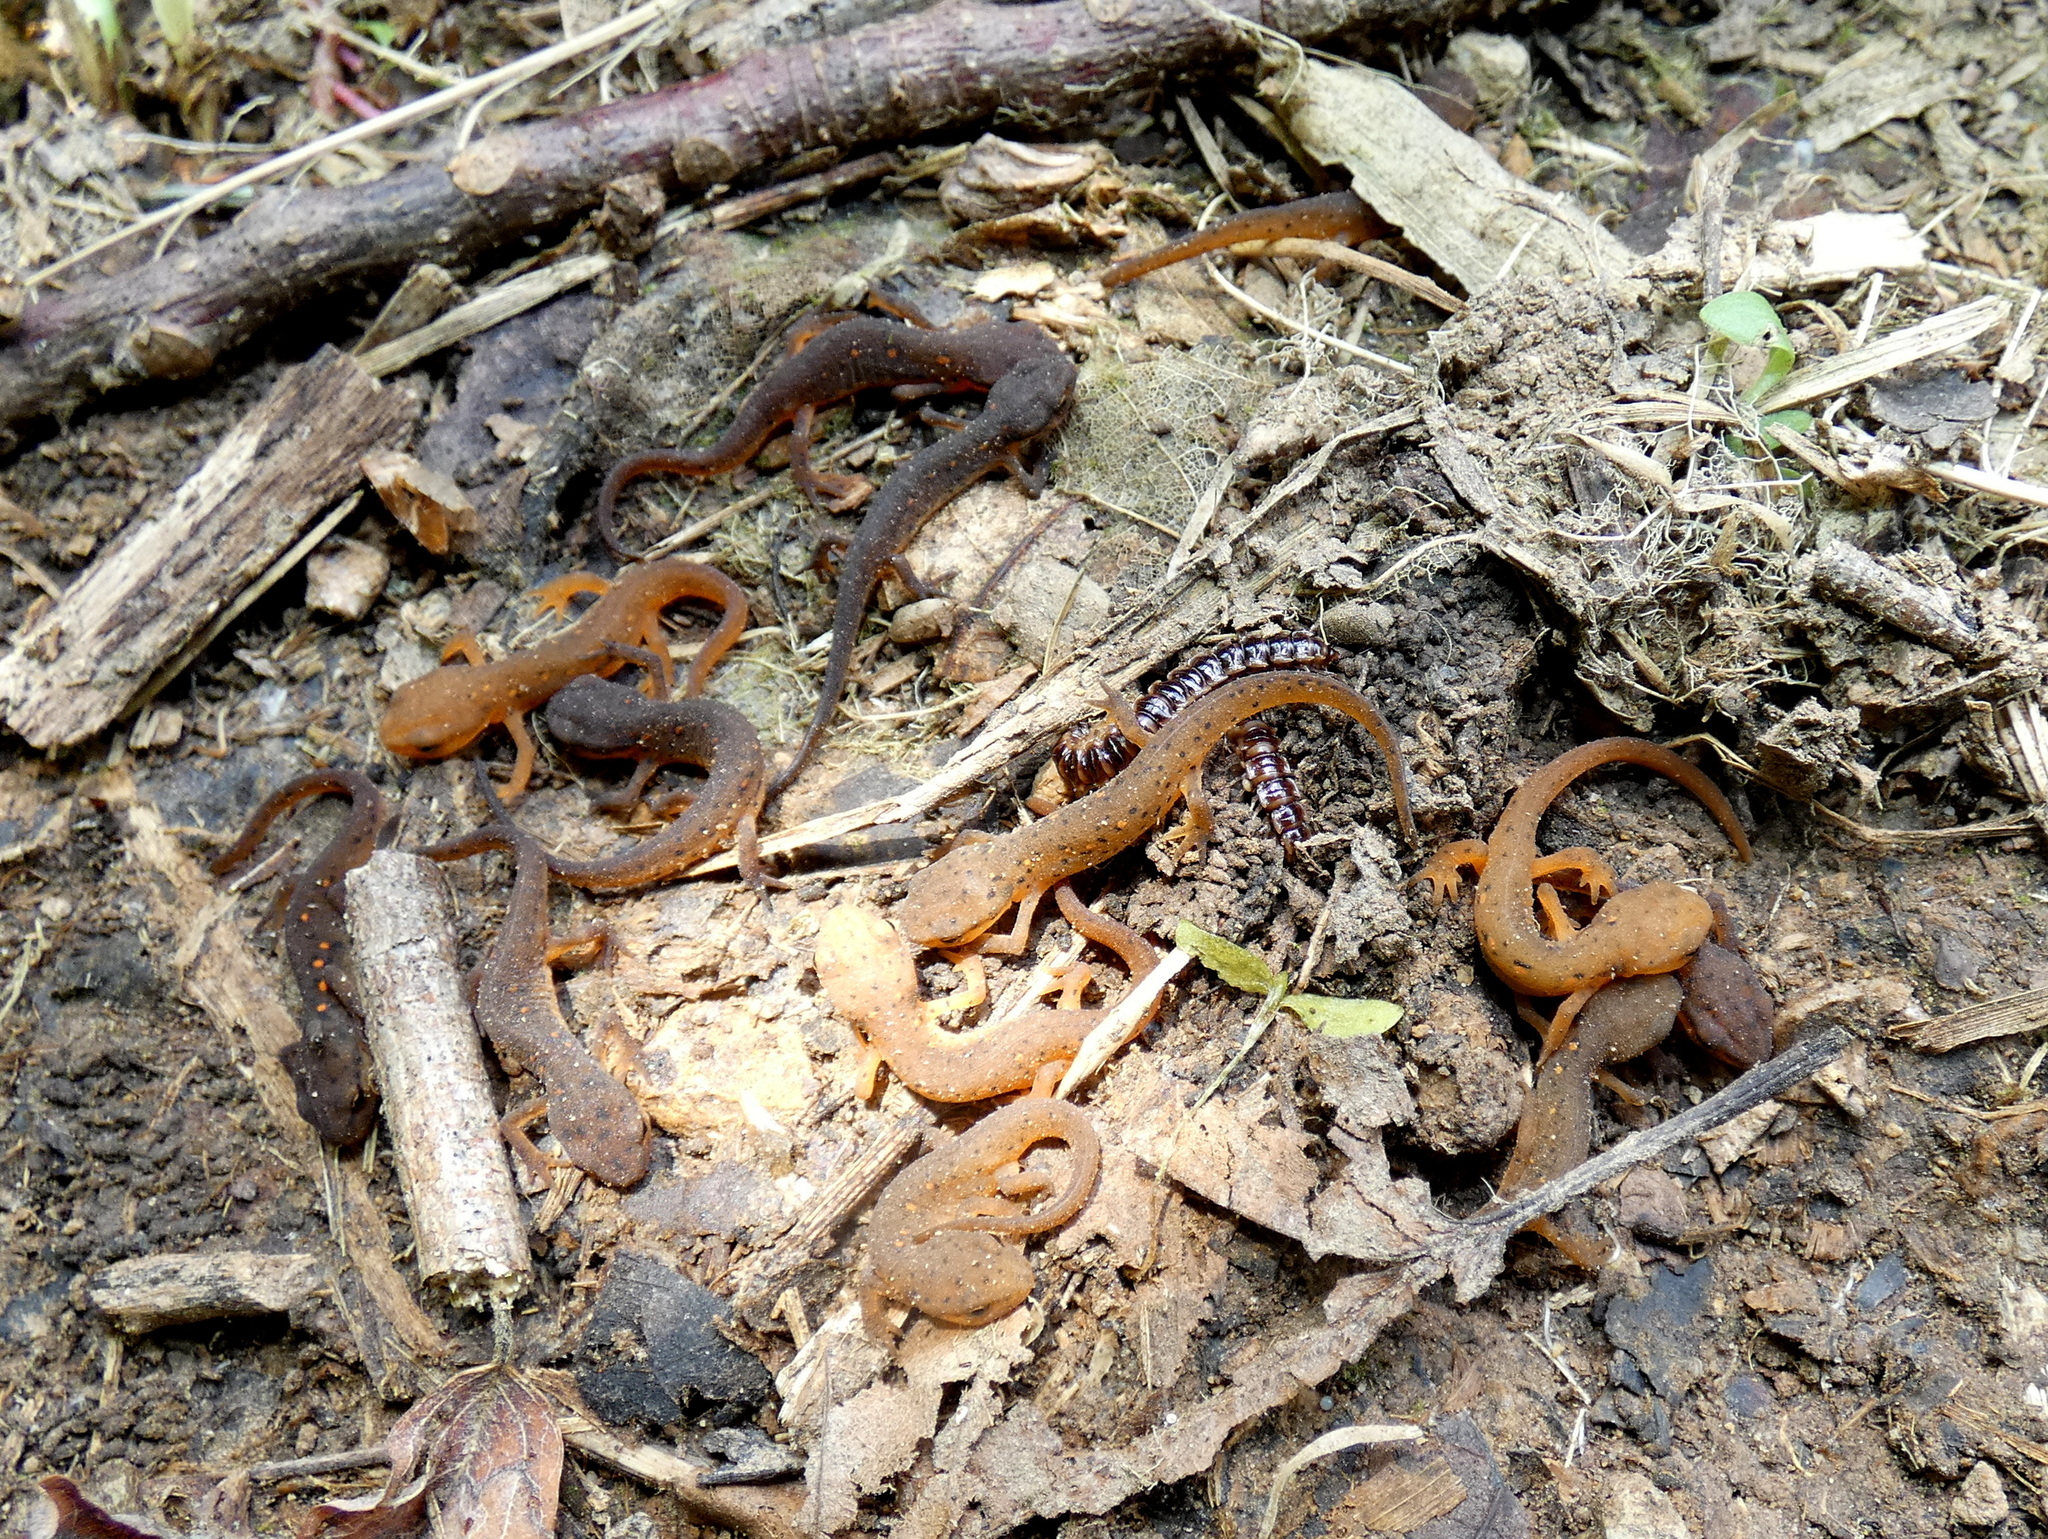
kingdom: Animalia
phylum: Chordata
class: Amphibia
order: Caudata
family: Salamandridae
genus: Notophthalmus
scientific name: Notophthalmus viridescens
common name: Eastern newt
